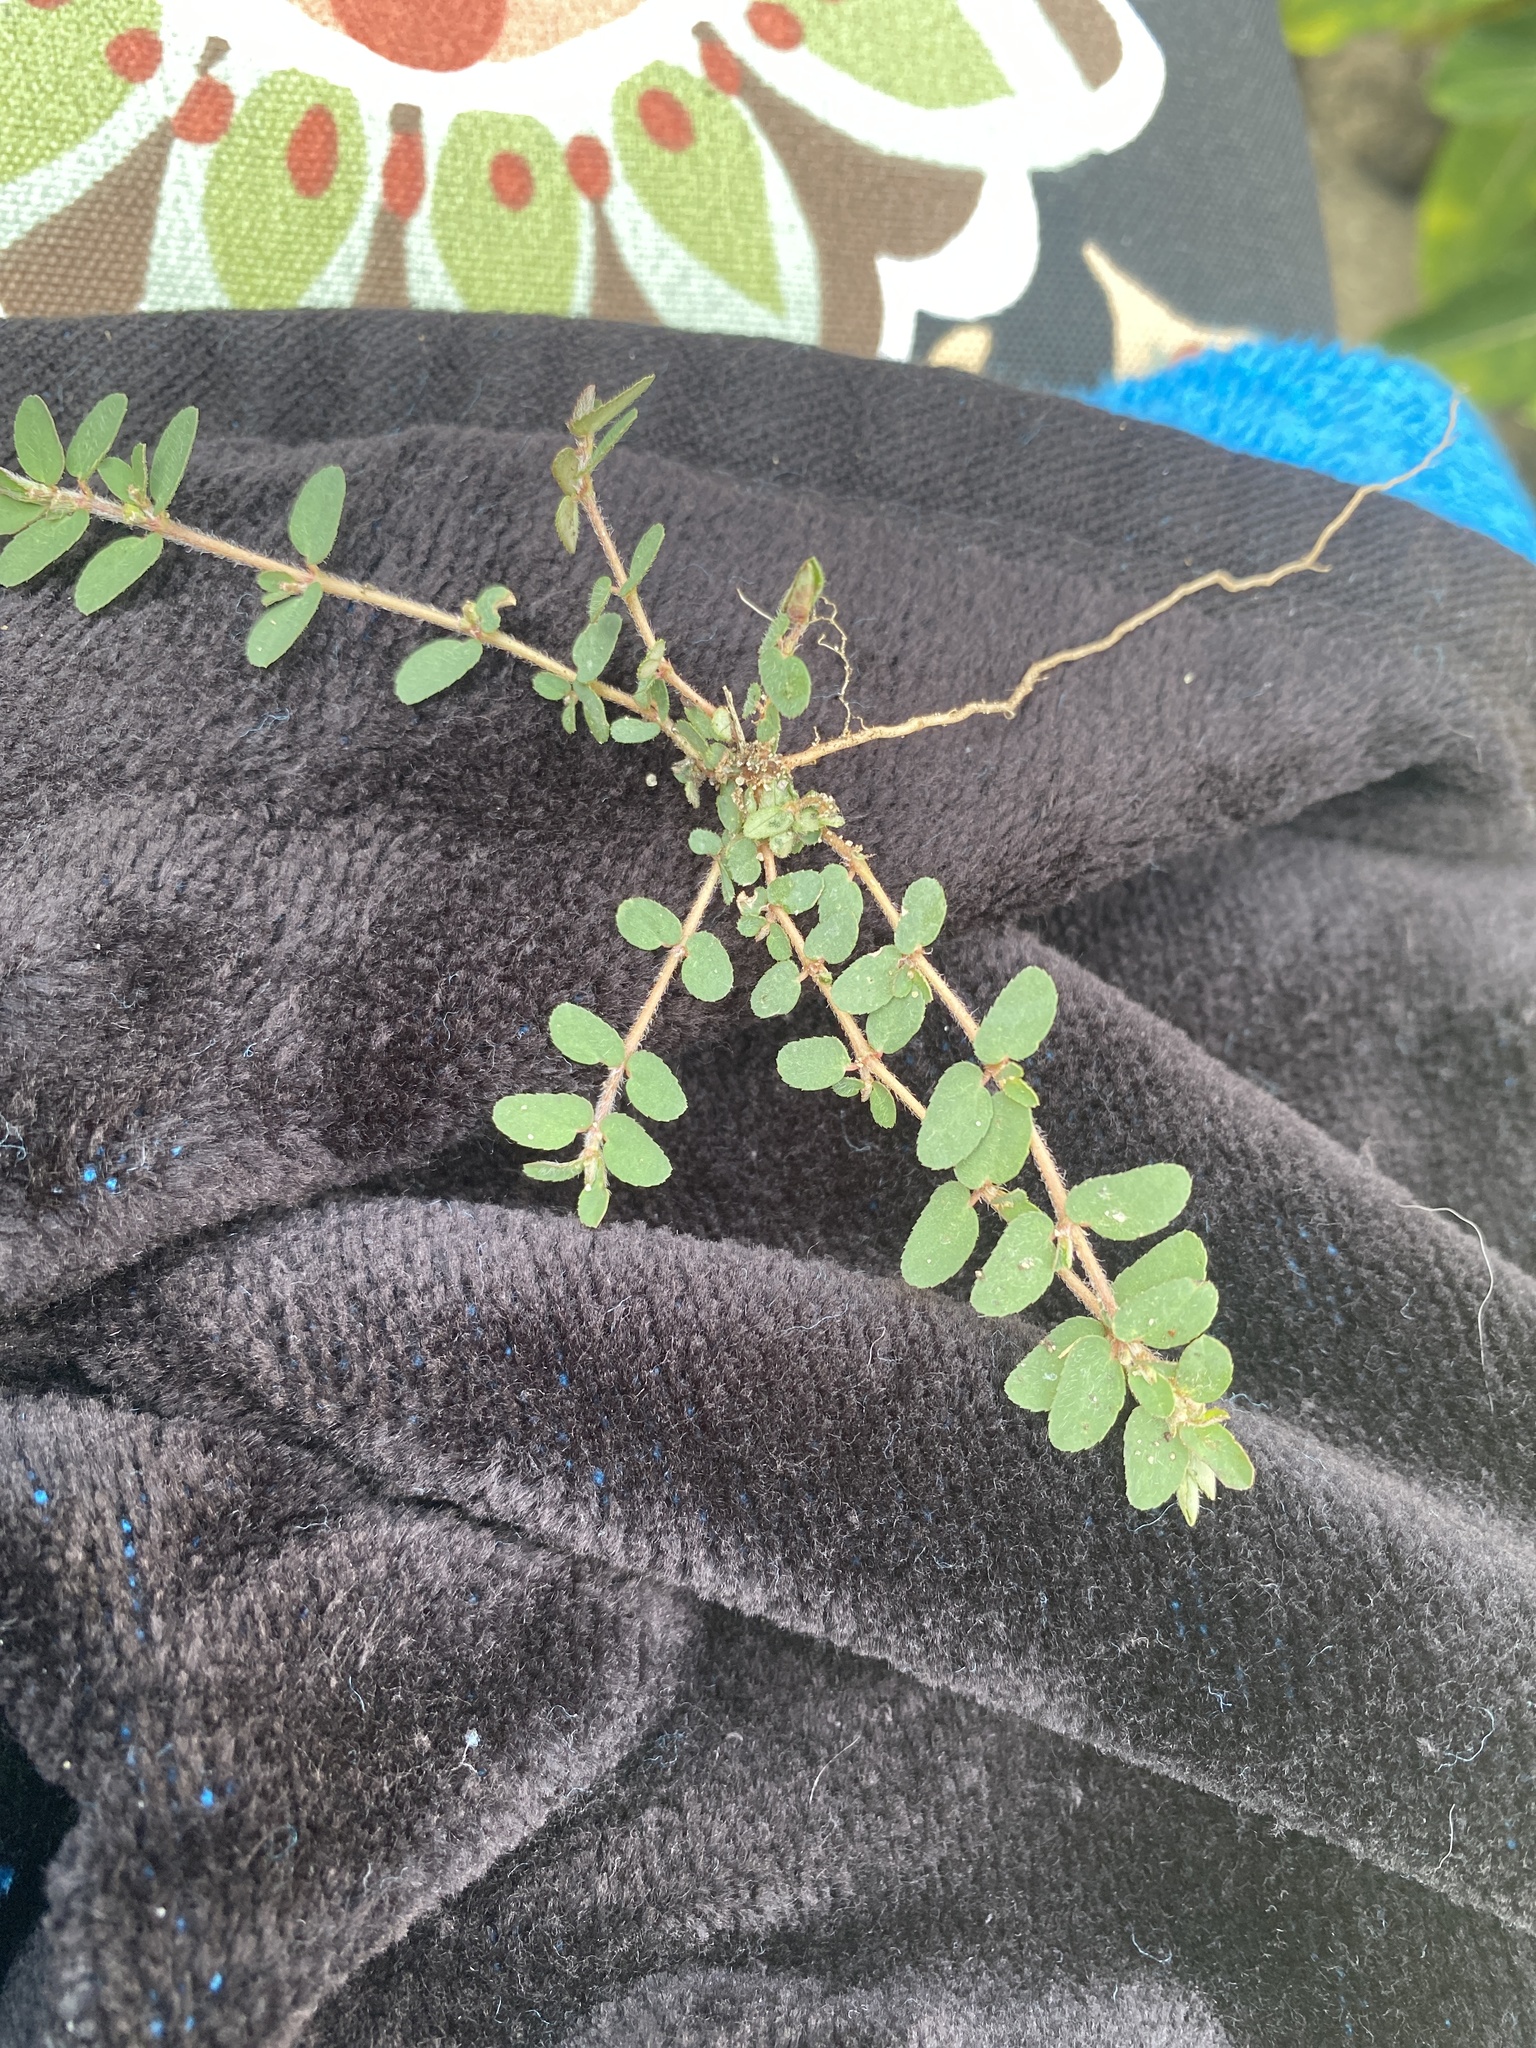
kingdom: Plantae
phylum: Tracheophyta
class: Magnoliopsida
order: Malpighiales
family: Euphorbiaceae
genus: Euphorbia
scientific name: Euphorbia maculata
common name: Spotted spurge
